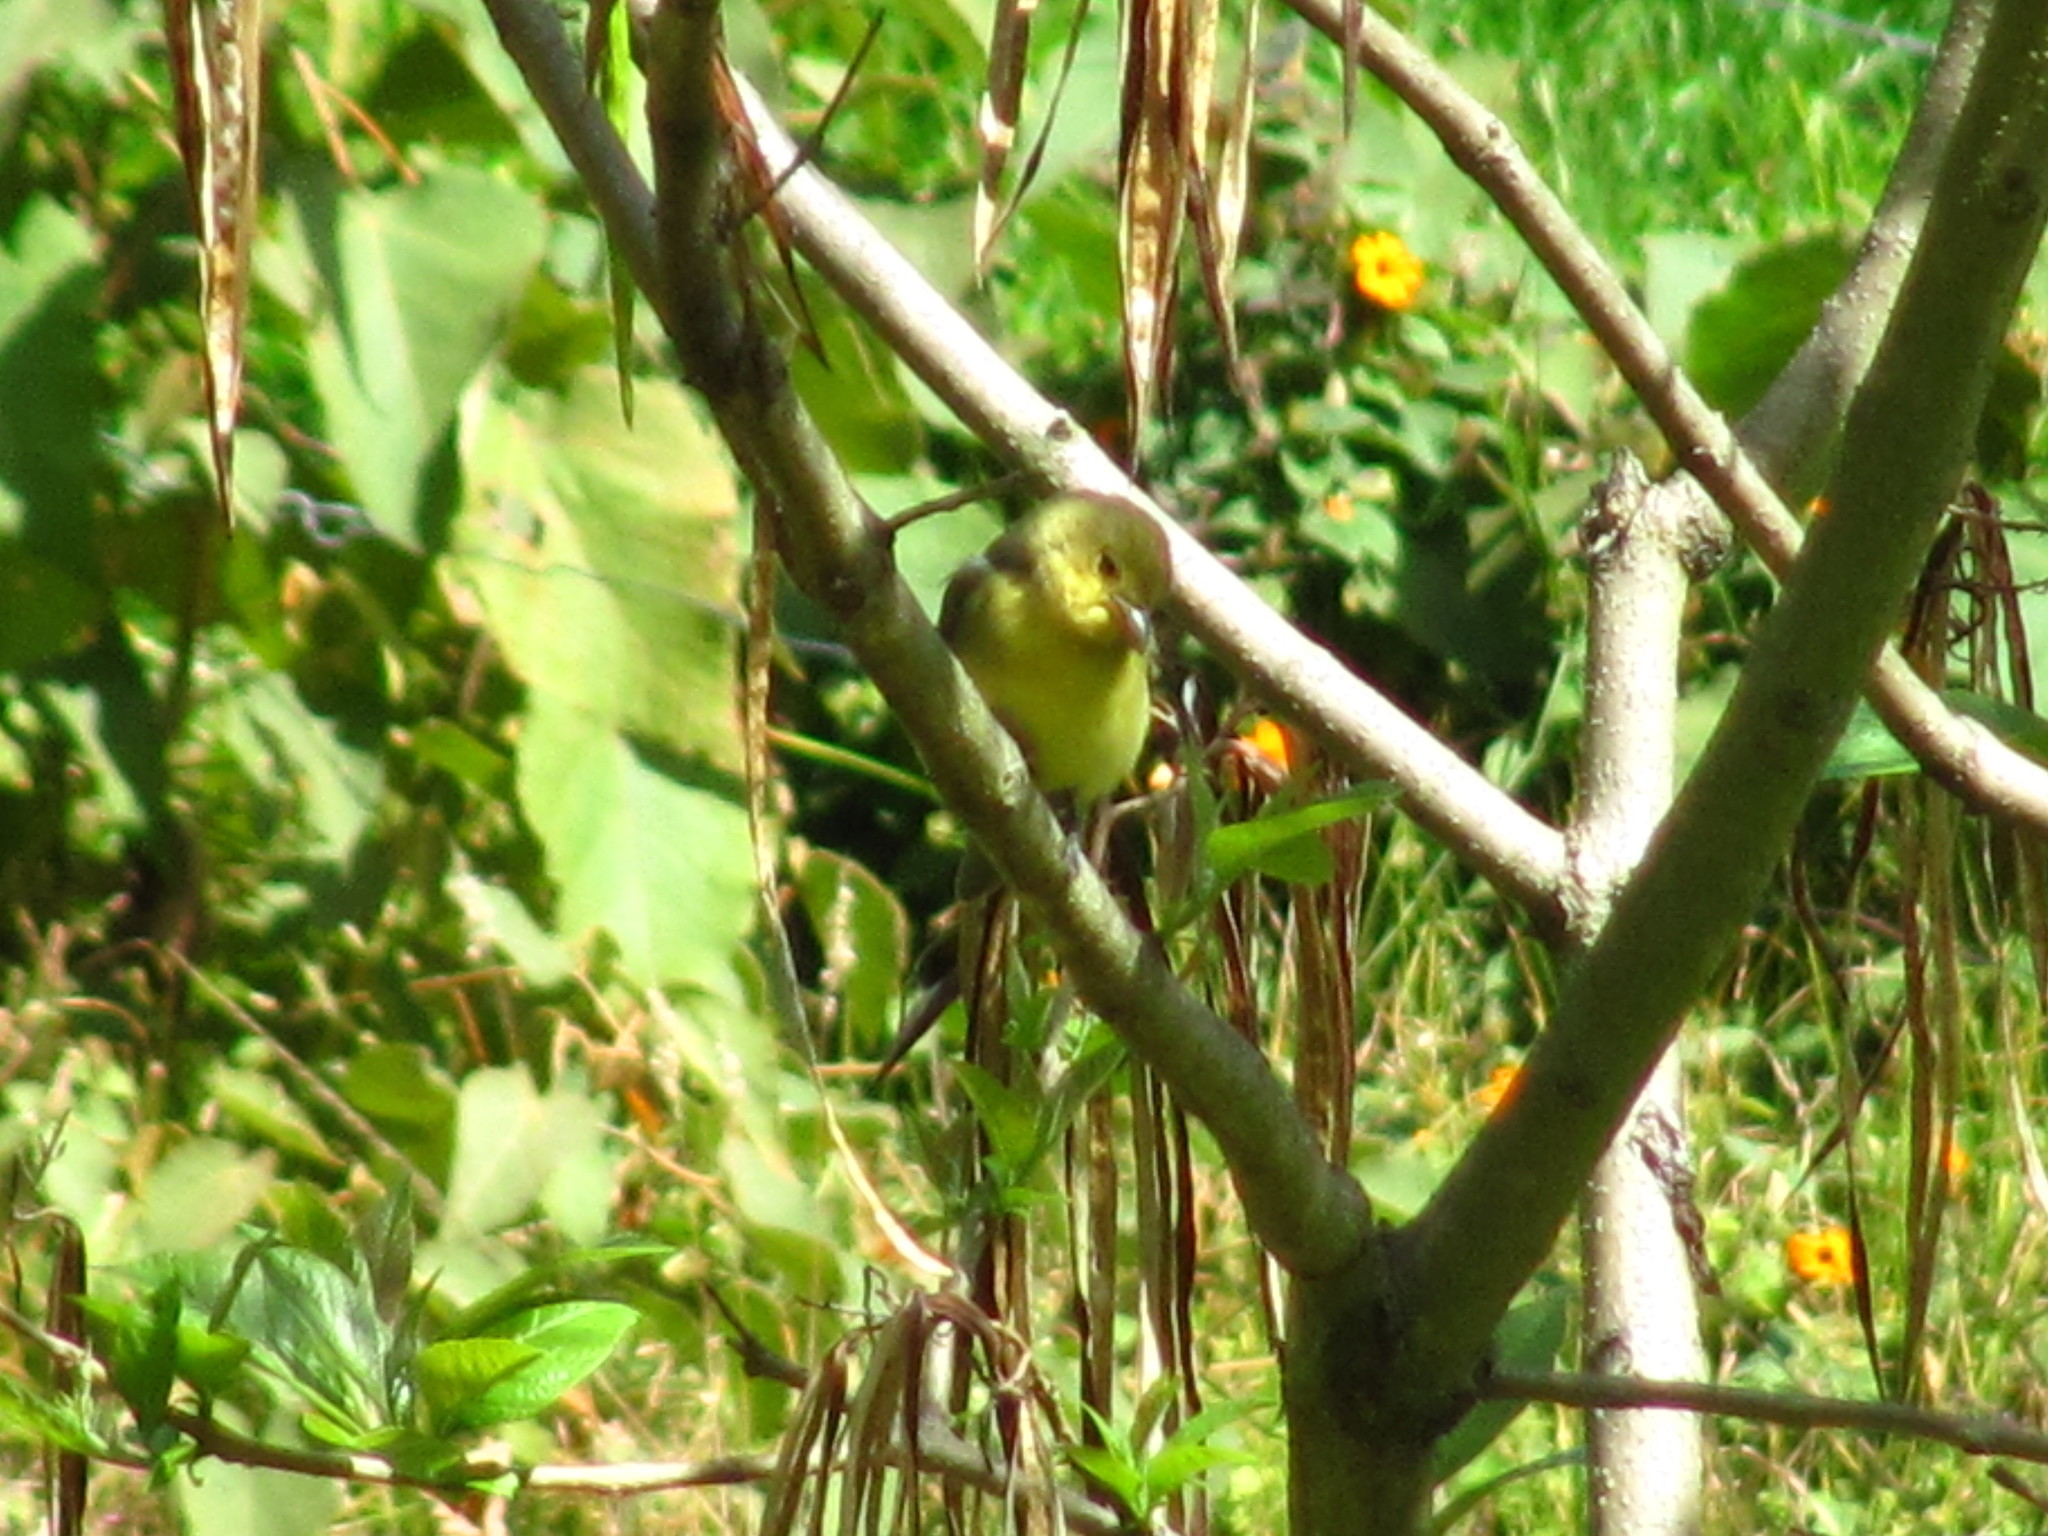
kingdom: Animalia
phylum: Chordata
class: Aves
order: Passeriformes
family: Cardinalidae
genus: Piranga
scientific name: Piranga olivacea
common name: Scarlet tanager
